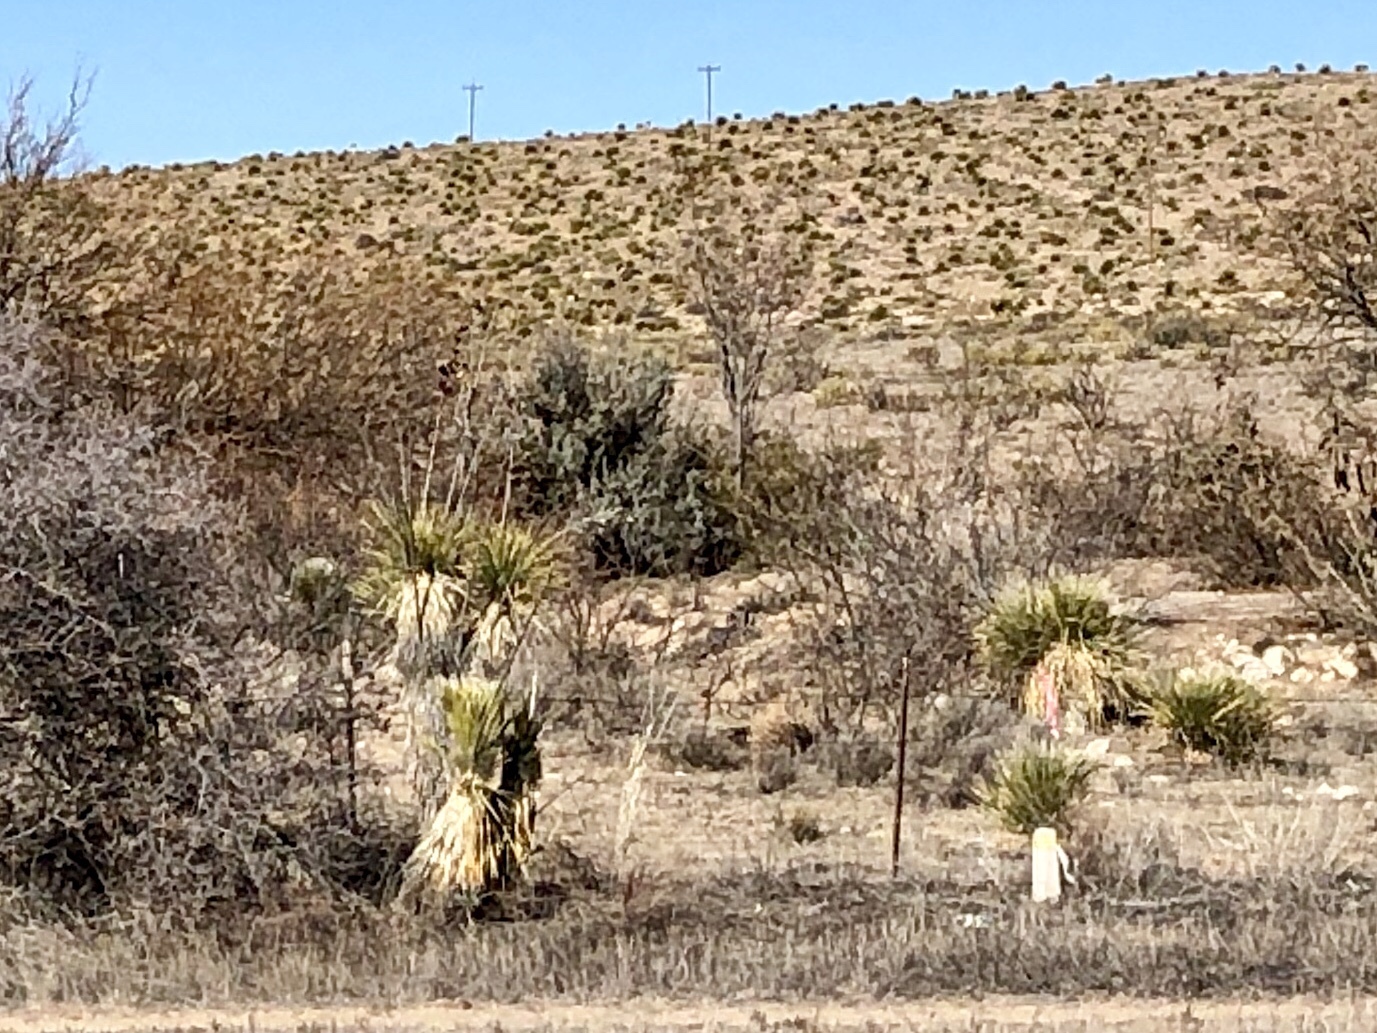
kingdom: Plantae
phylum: Tracheophyta
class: Liliopsida
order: Asparagales
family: Asparagaceae
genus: Yucca
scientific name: Yucca elata
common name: Palmella
